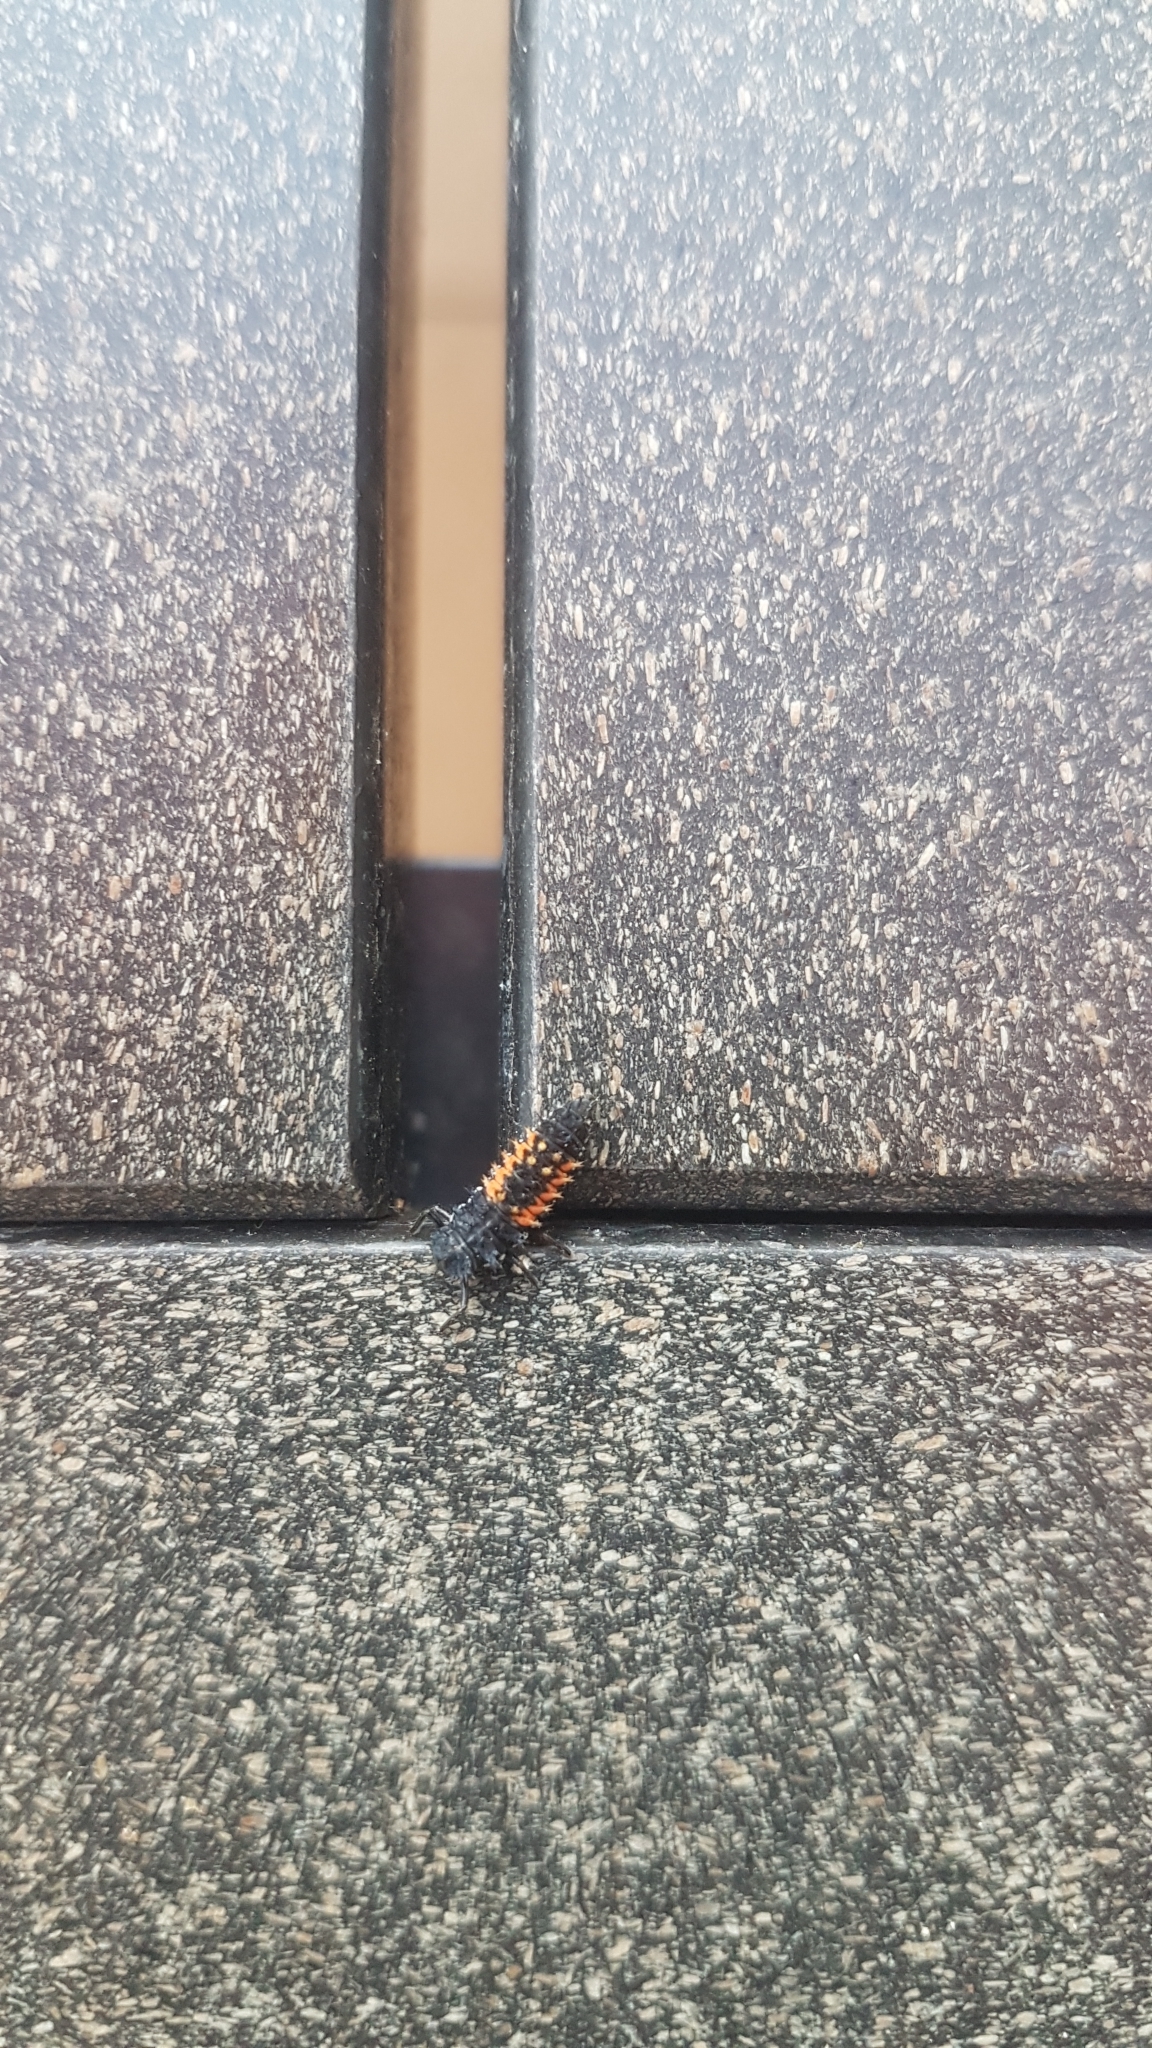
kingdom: Animalia
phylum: Arthropoda
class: Insecta
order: Coleoptera
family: Coccinellidae
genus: Harmonia
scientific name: Harmonia axyridis
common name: Harlequin ladybird
